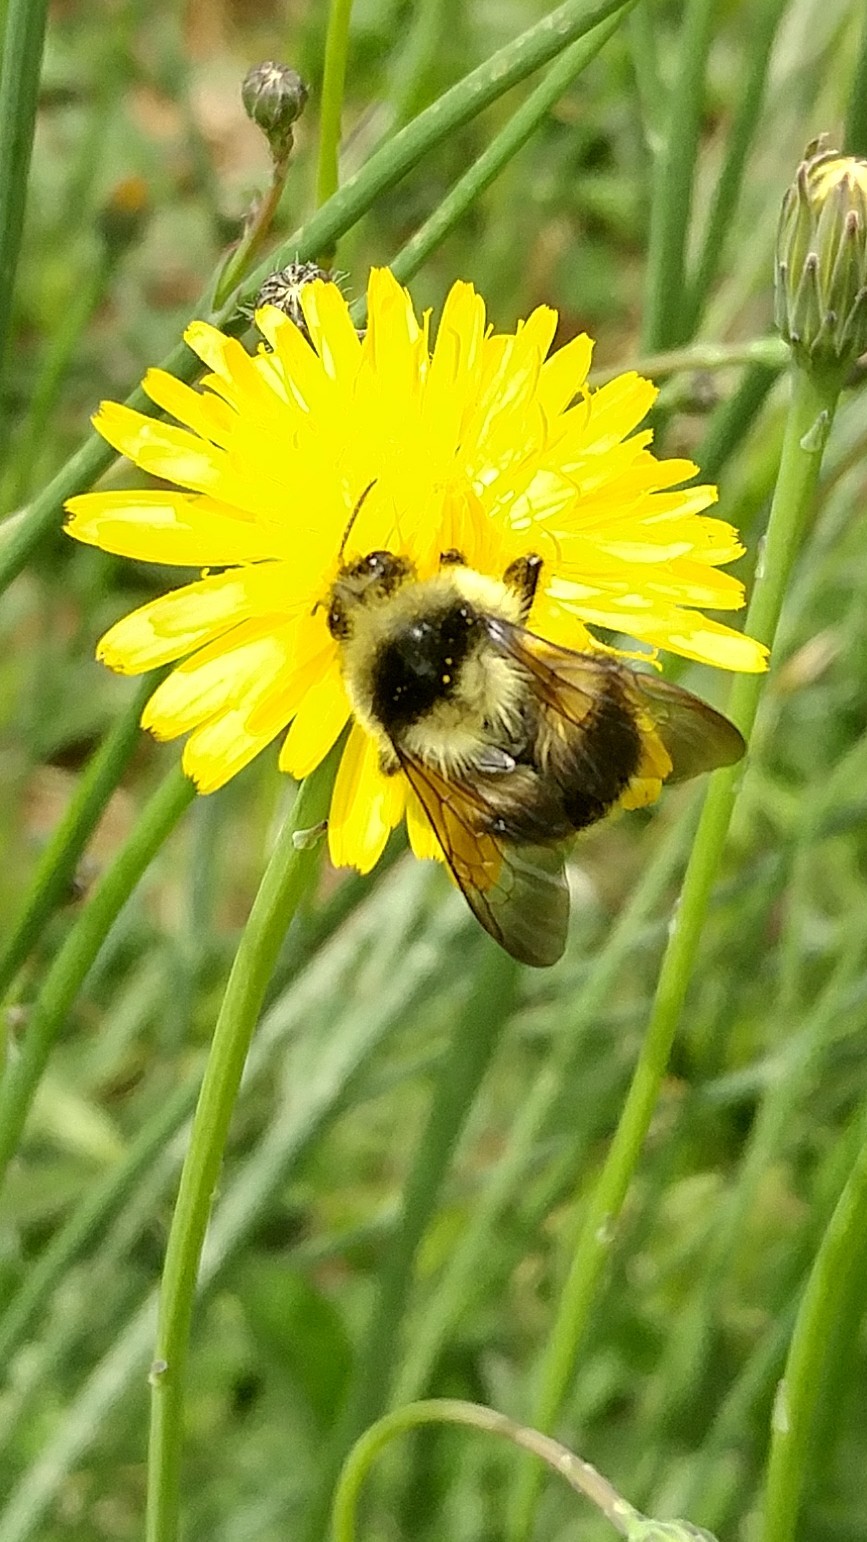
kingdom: Animalia
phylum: Arthropoda
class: Insecta
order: Hymenoptera
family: Apidae
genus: Bombus
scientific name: Bombus melanopygus
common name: Black tail bumble bee
